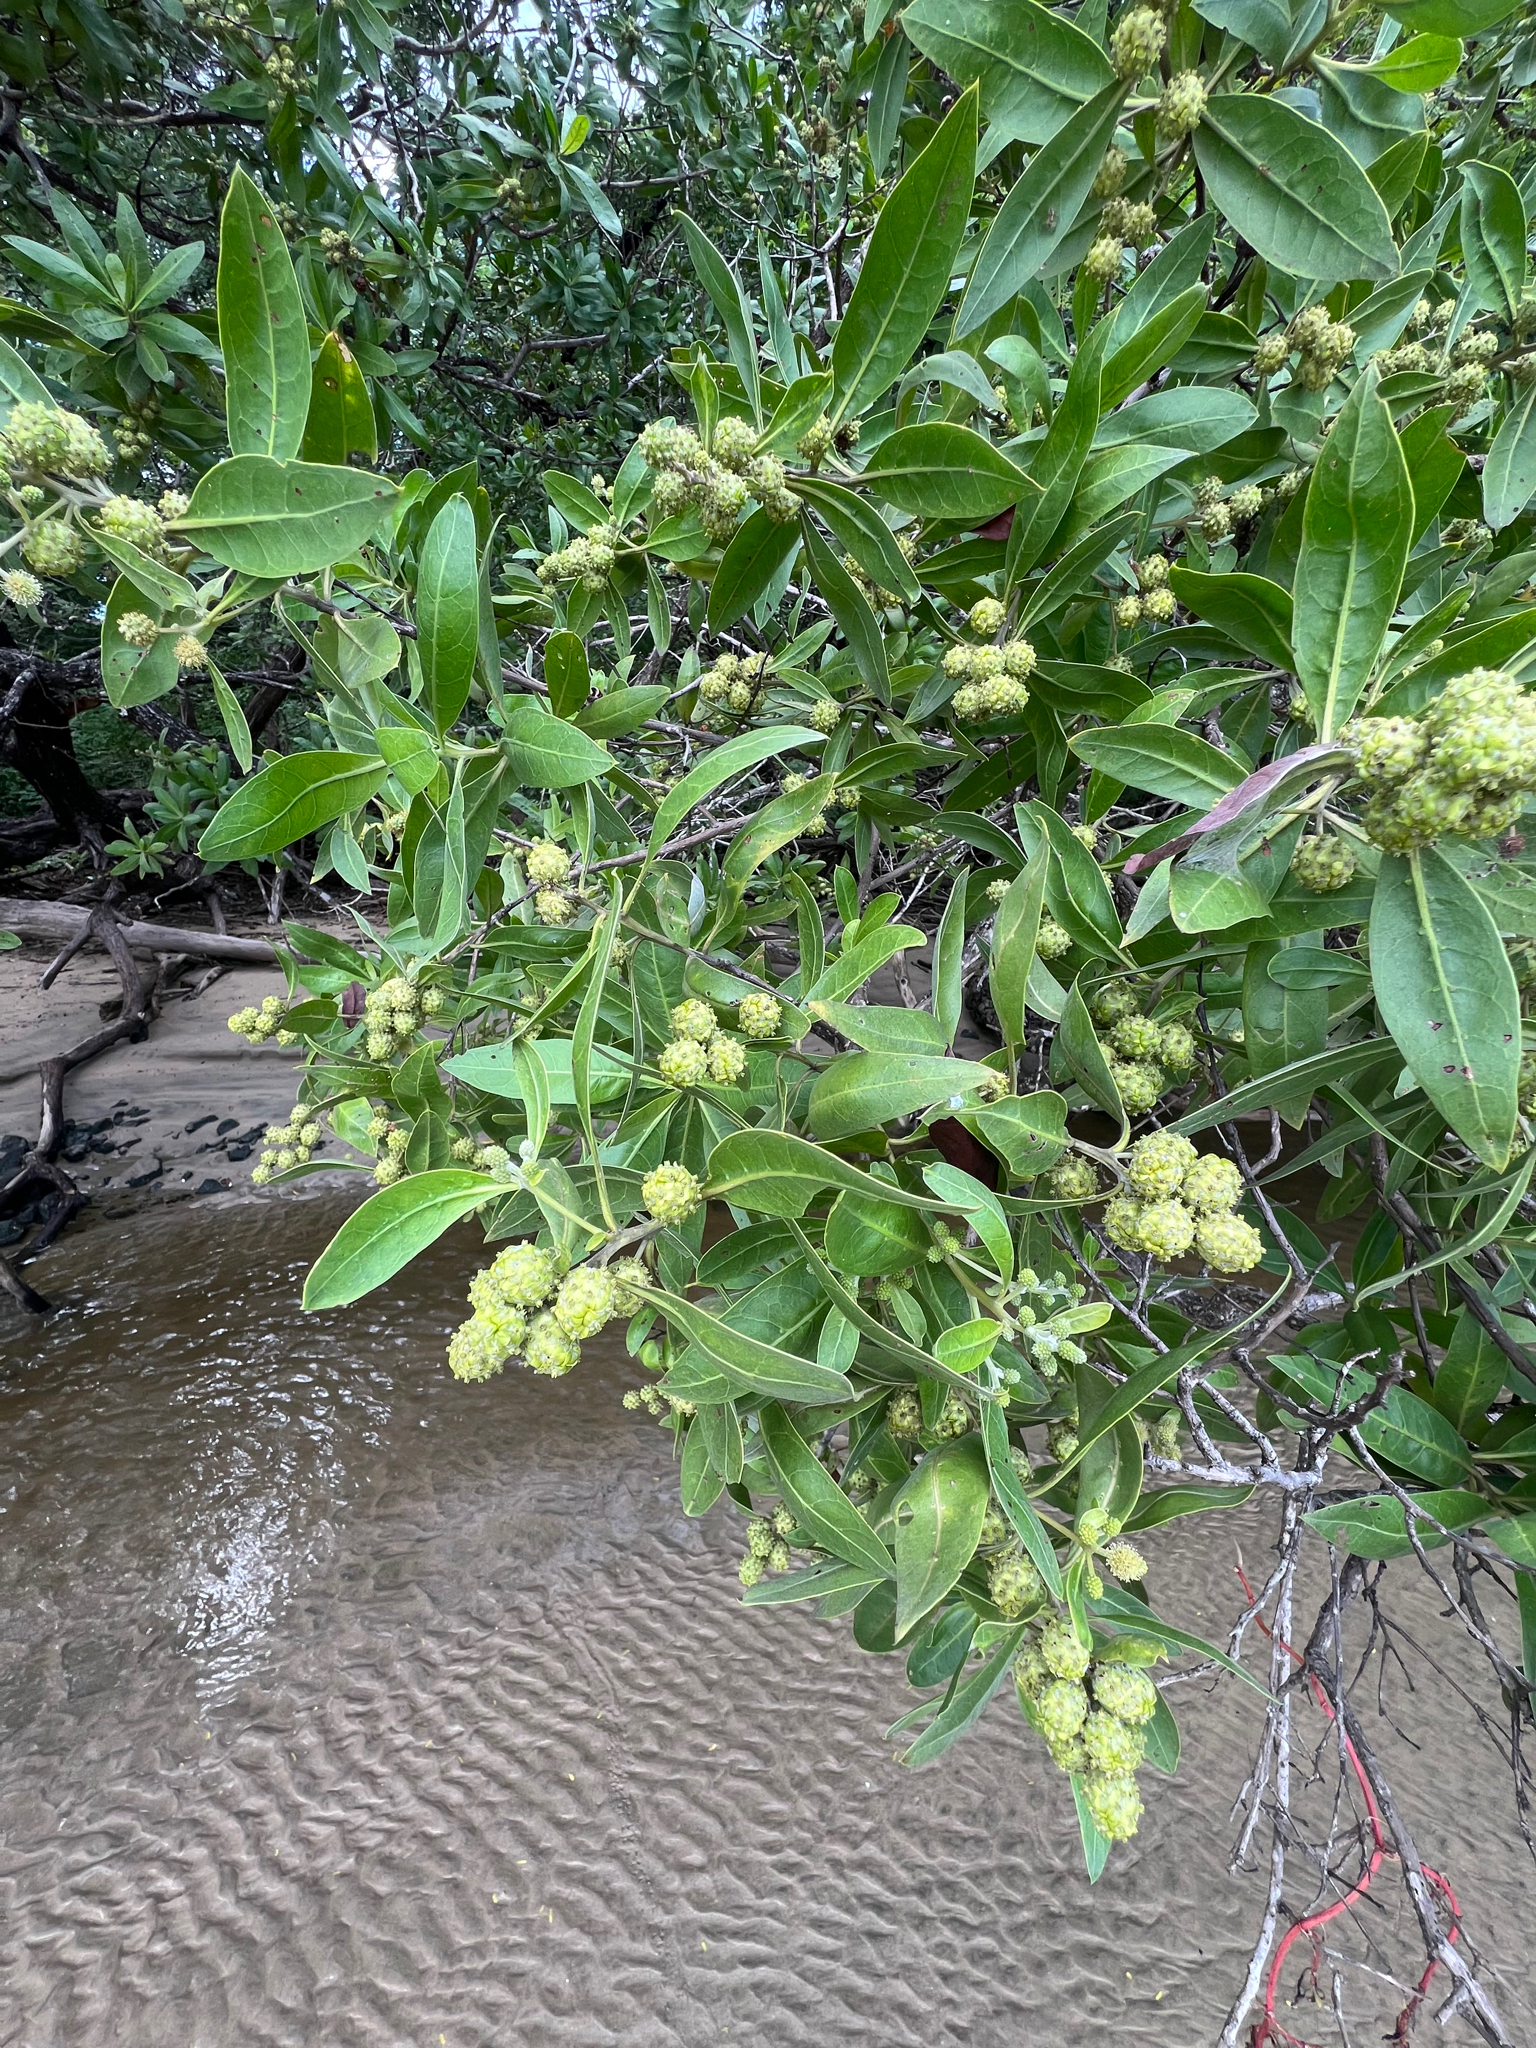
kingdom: Plantae
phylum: Tracheophyta
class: Magnoliopsida
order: Myrtales
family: Combretaceae
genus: Conocarpus
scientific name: Conocarpus erectus
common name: Button mangrove
